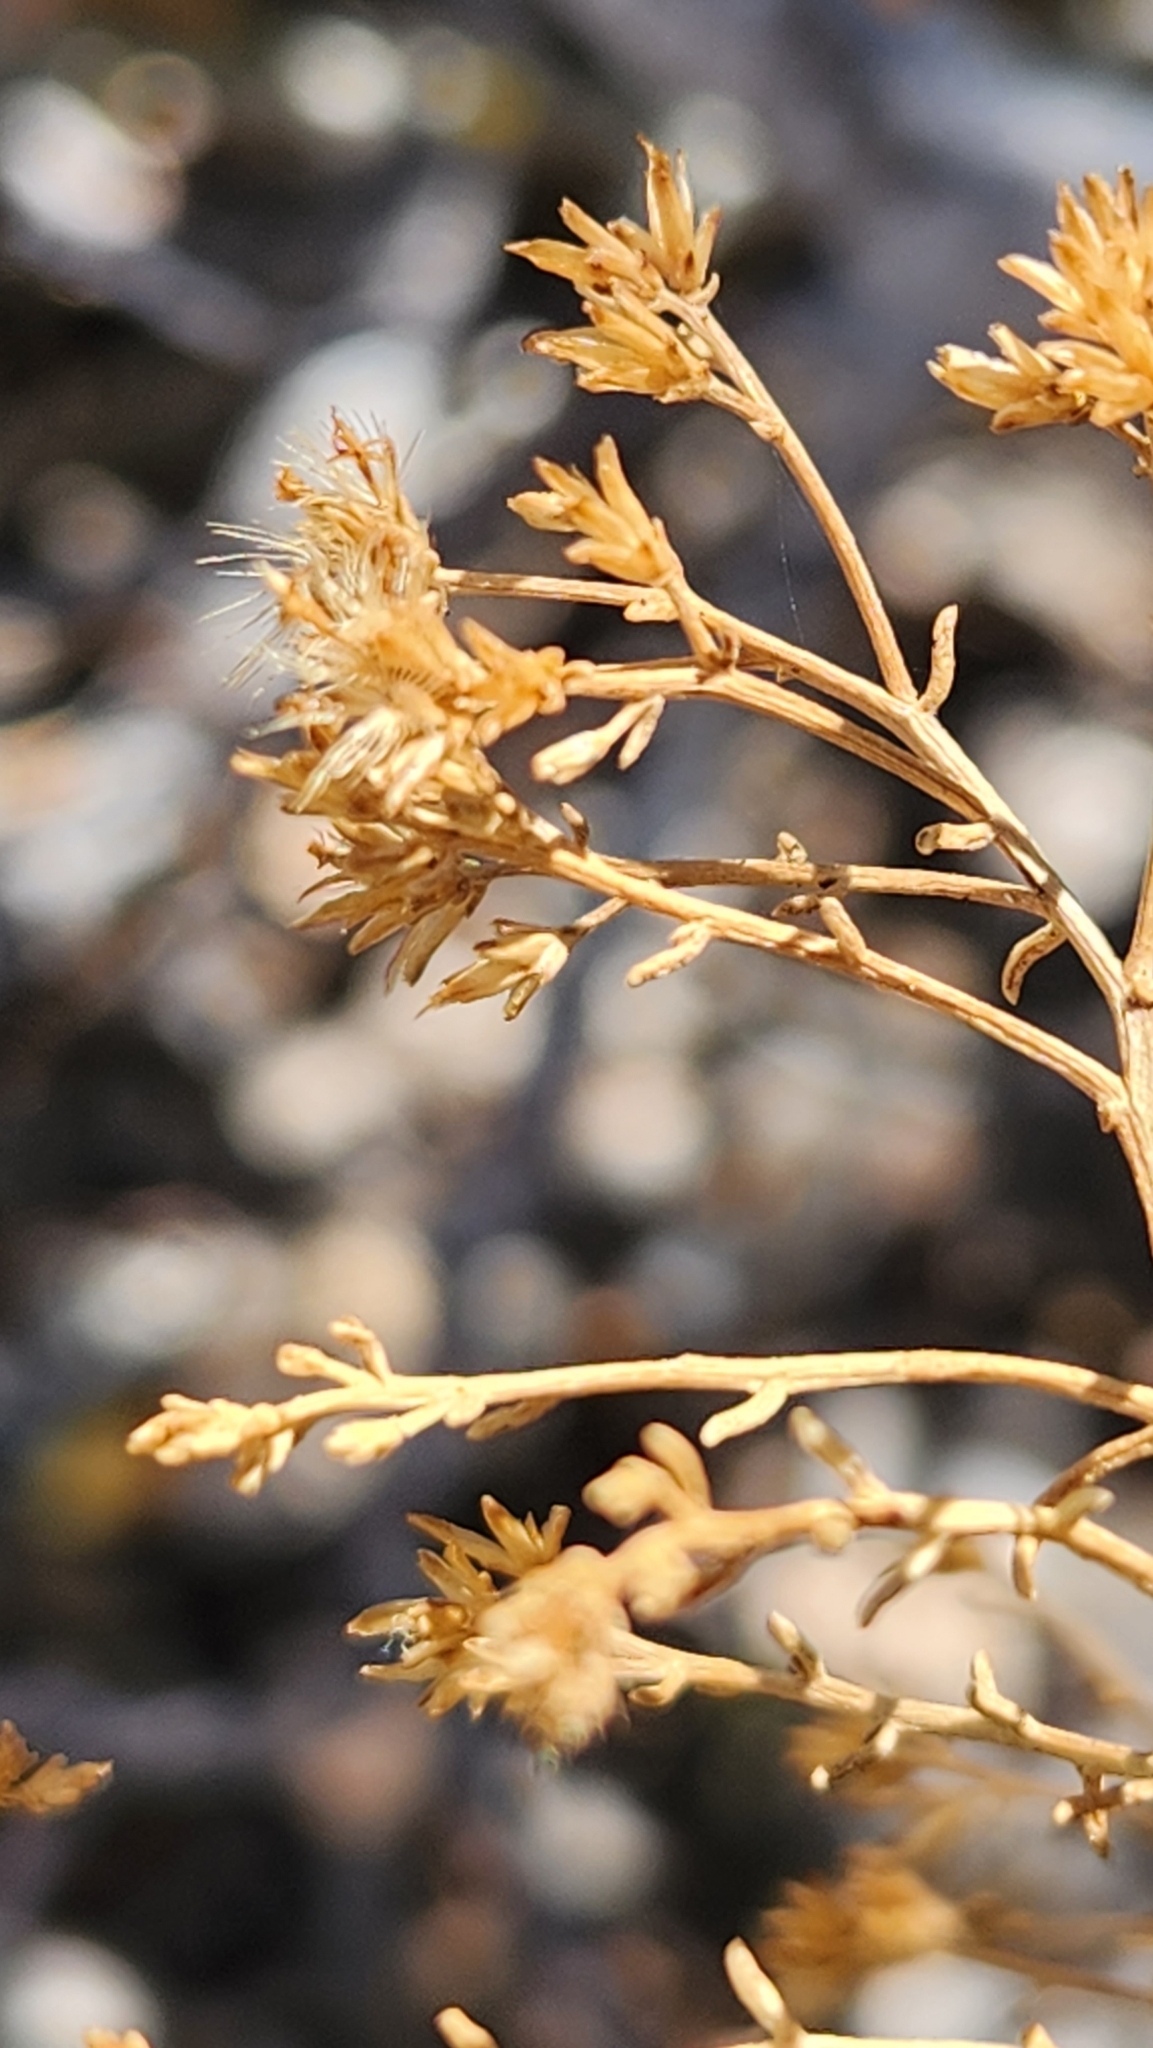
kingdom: Plantae
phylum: Tracheophyta
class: Magnoliopsida
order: Asterales
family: Asteraceae
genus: Gundlachia
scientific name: Gundlachia diffusa
